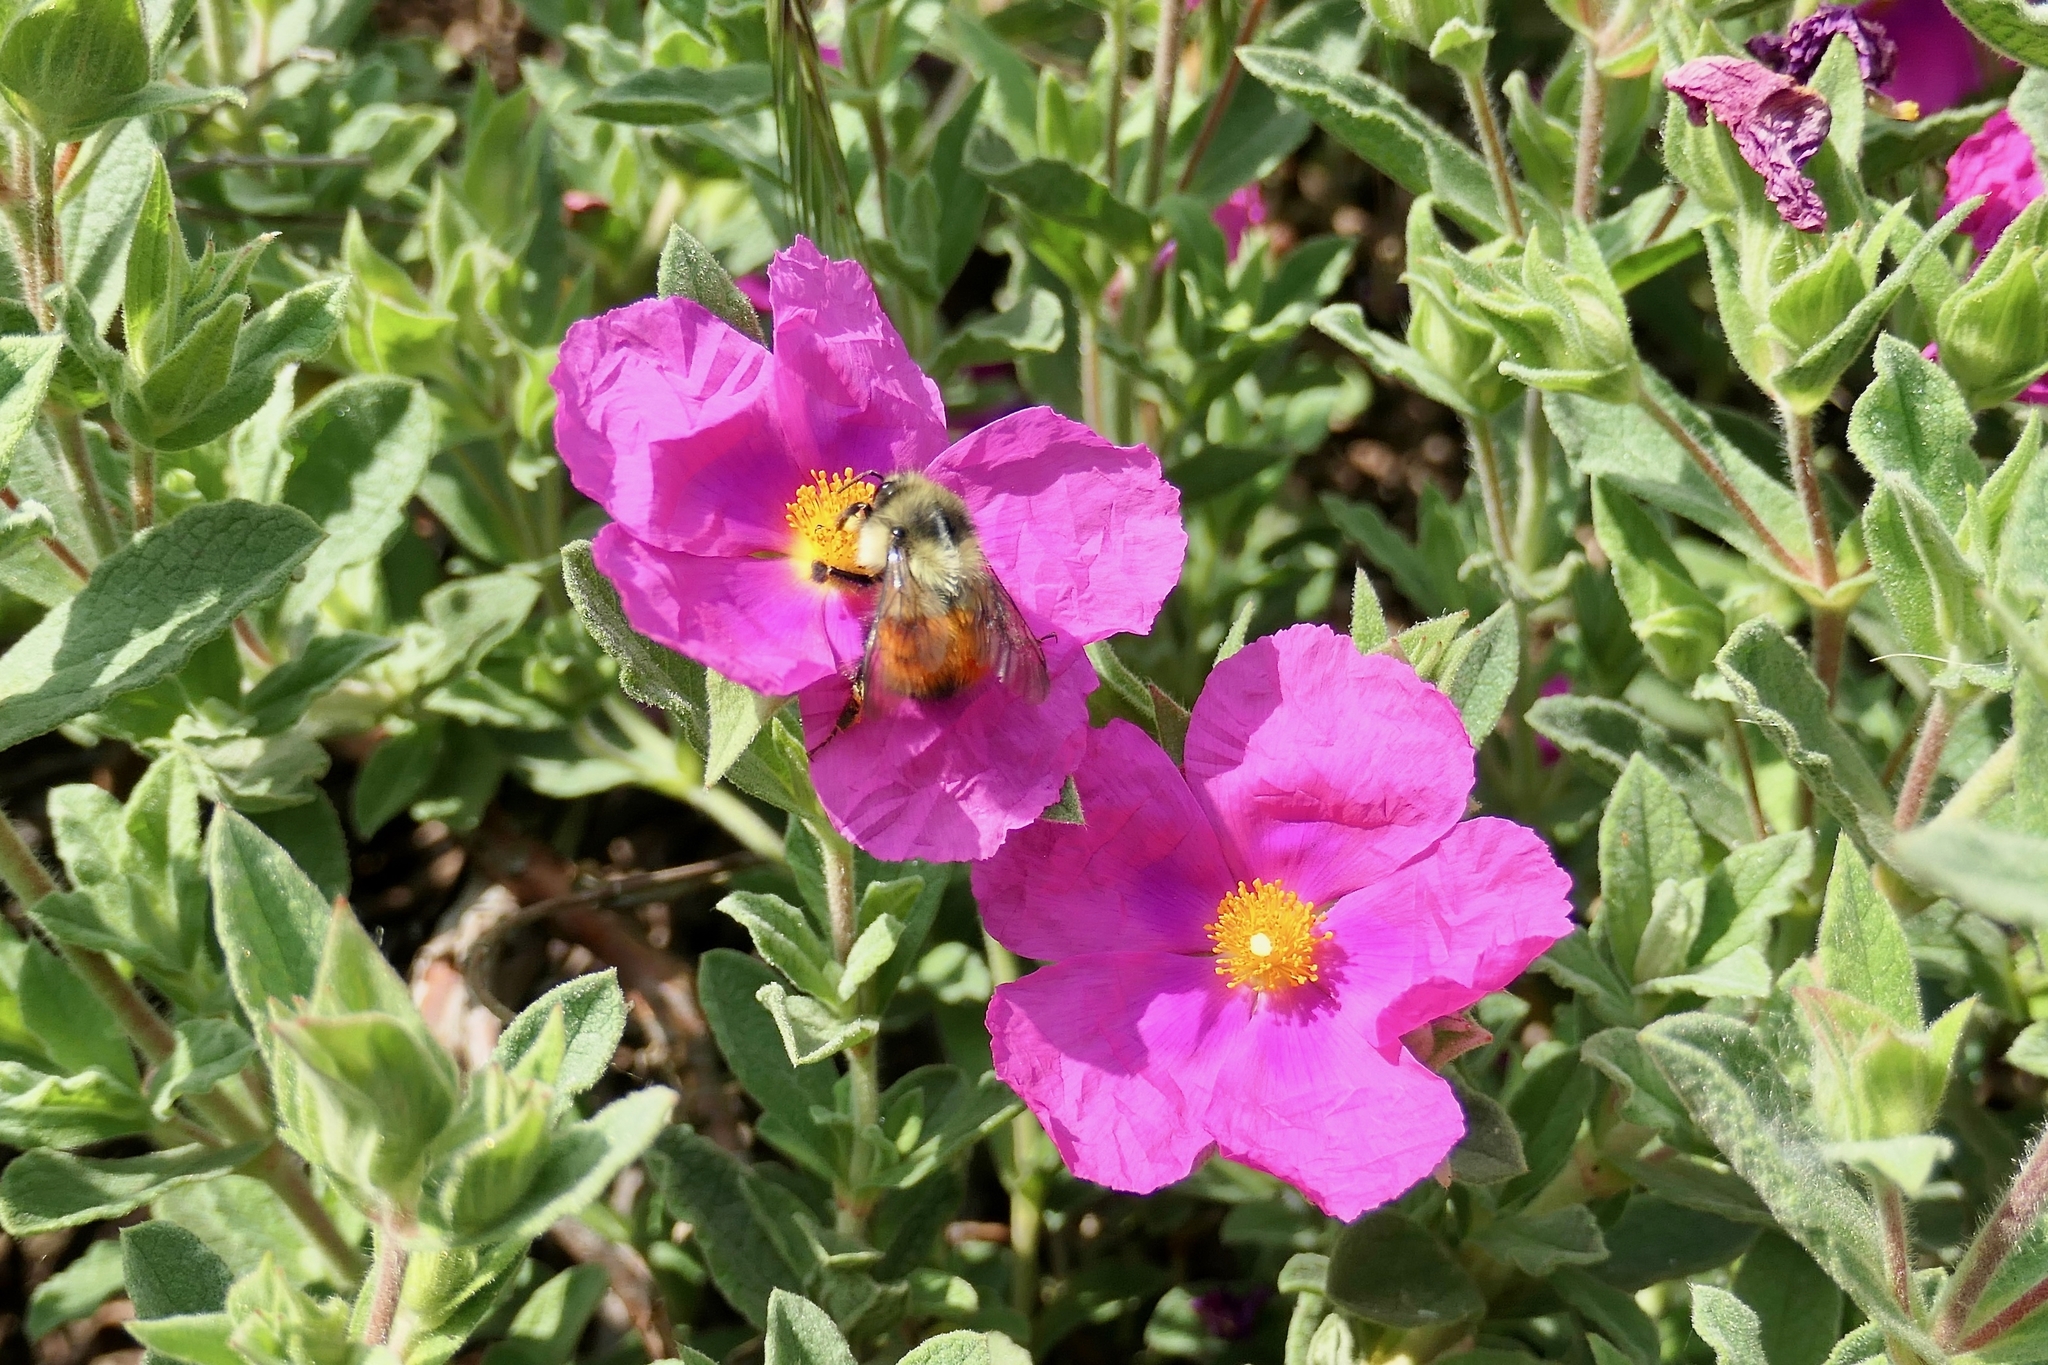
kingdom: Animalia
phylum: Arthropoda
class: Insecta
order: Hymenoptera
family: Apidae
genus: Bombus
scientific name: Bombus melanopygus
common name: Black tail bumble bee
